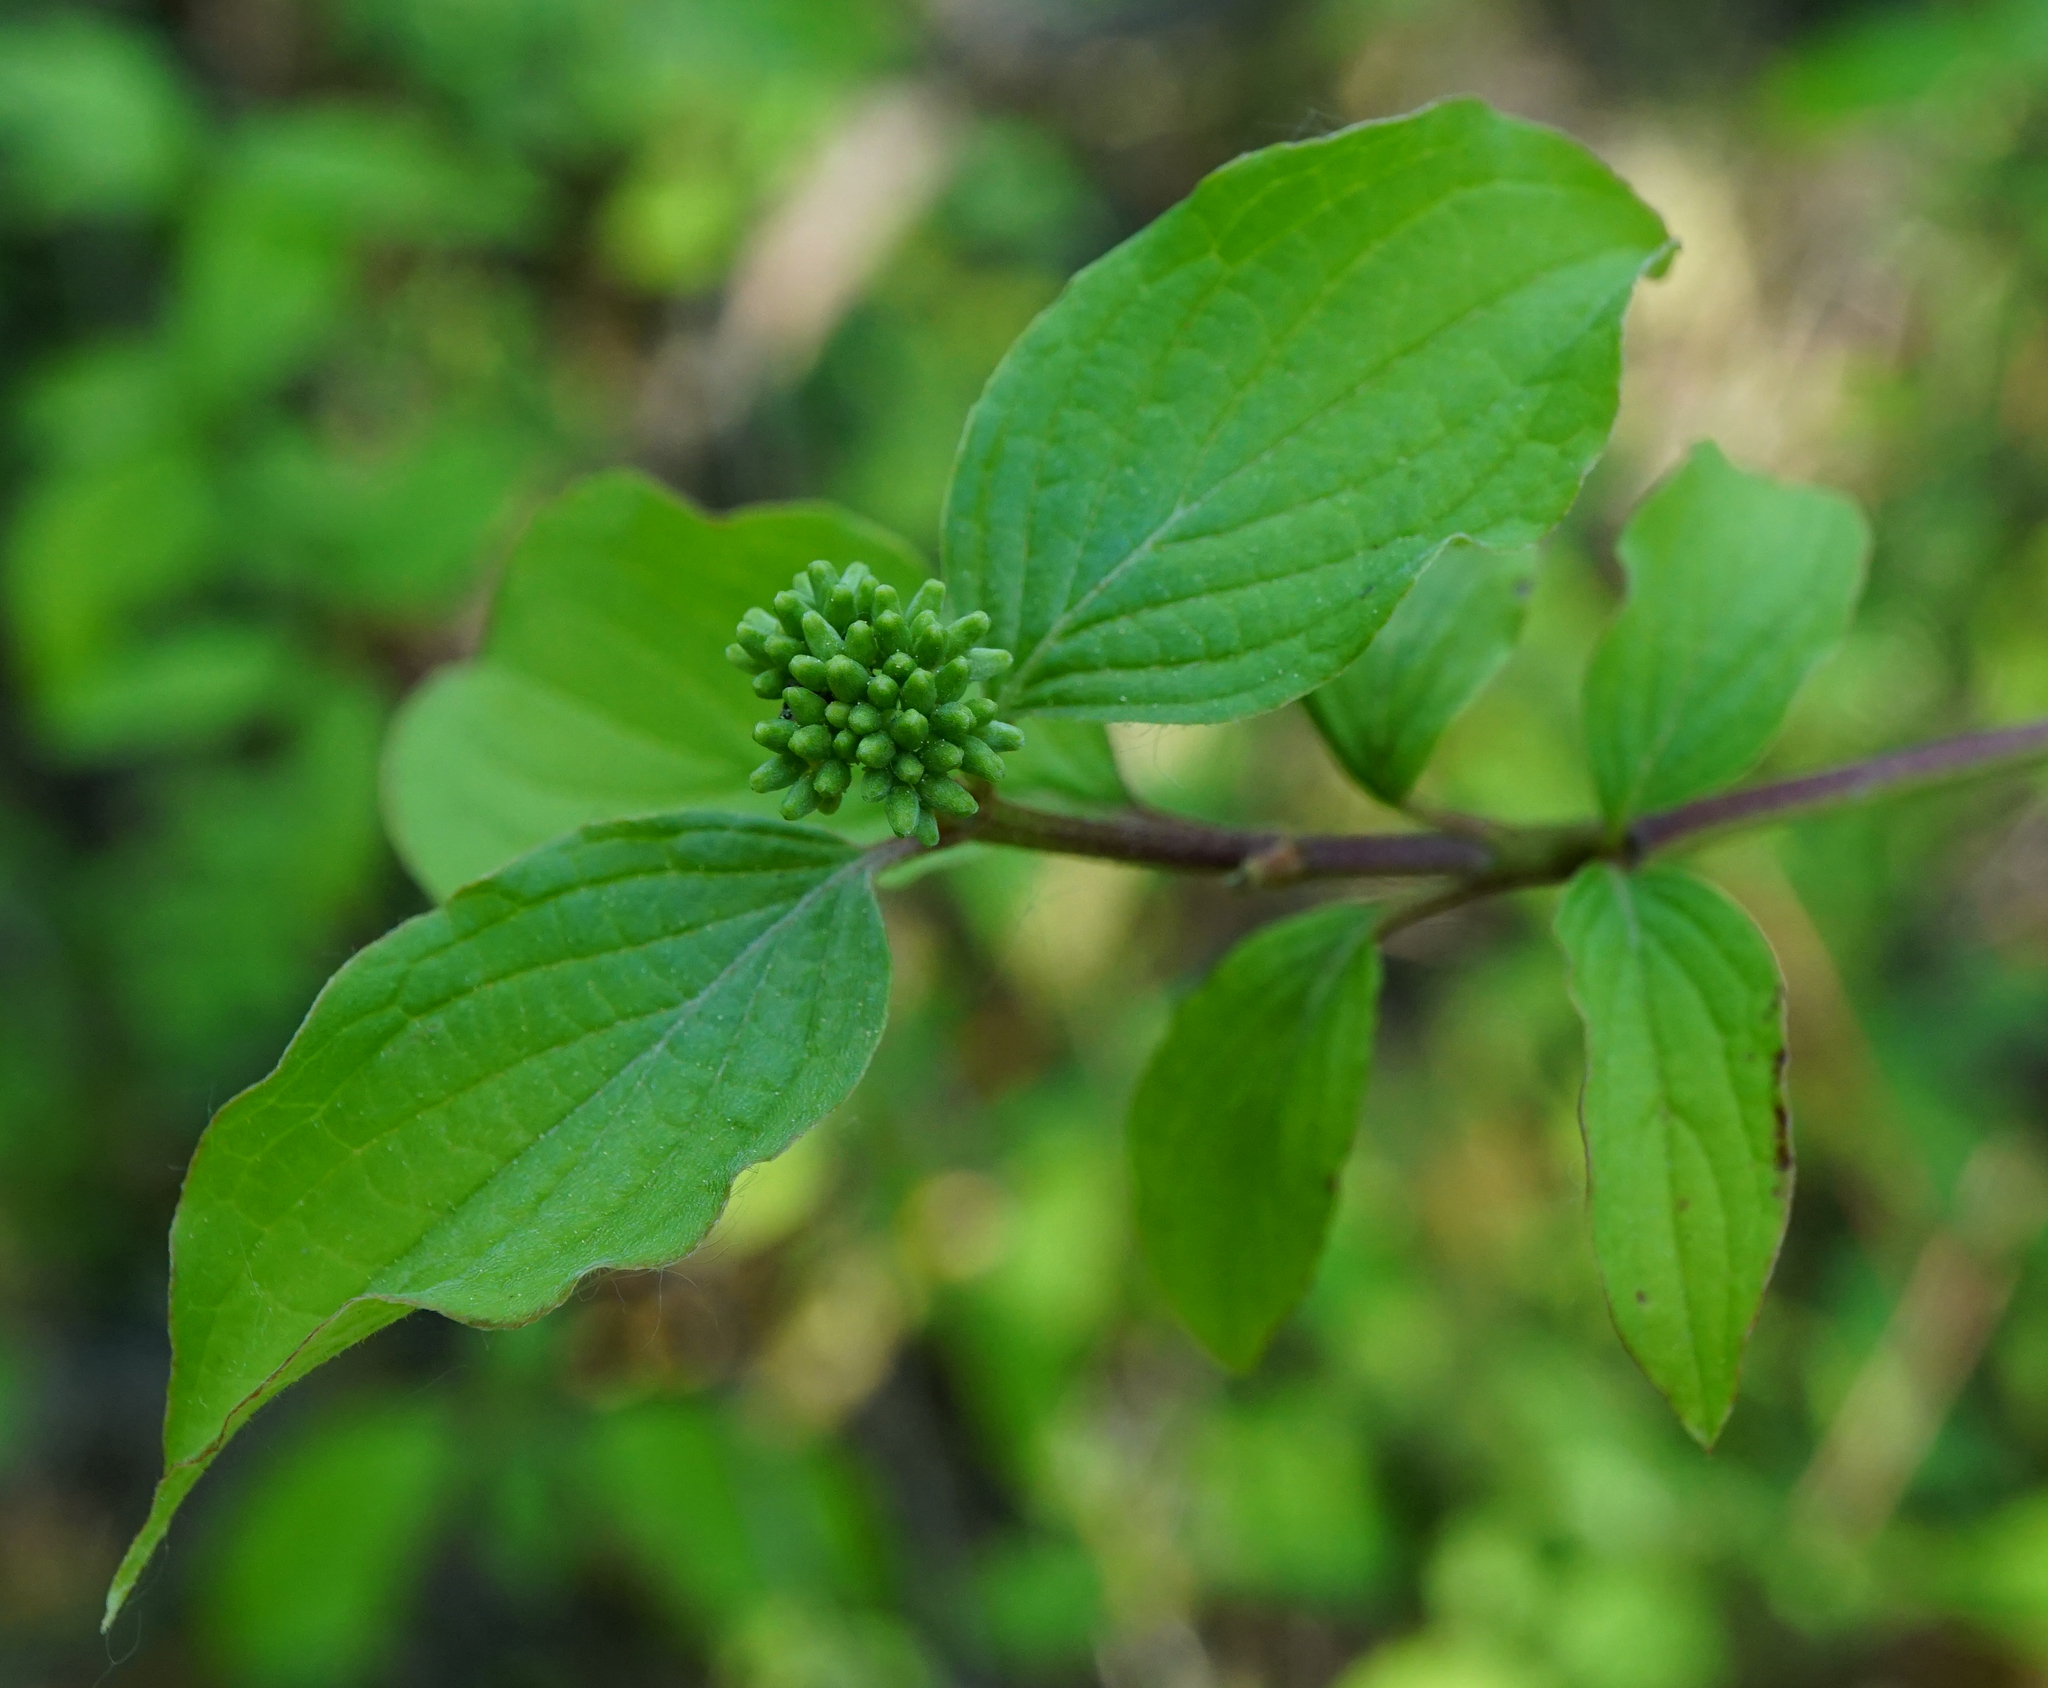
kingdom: Plantae
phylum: Tracheophyta
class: Magnoliopsida
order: Cornales
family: Cornaceae
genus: Cornus
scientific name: Cornus sanguinea
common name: Dogwood
